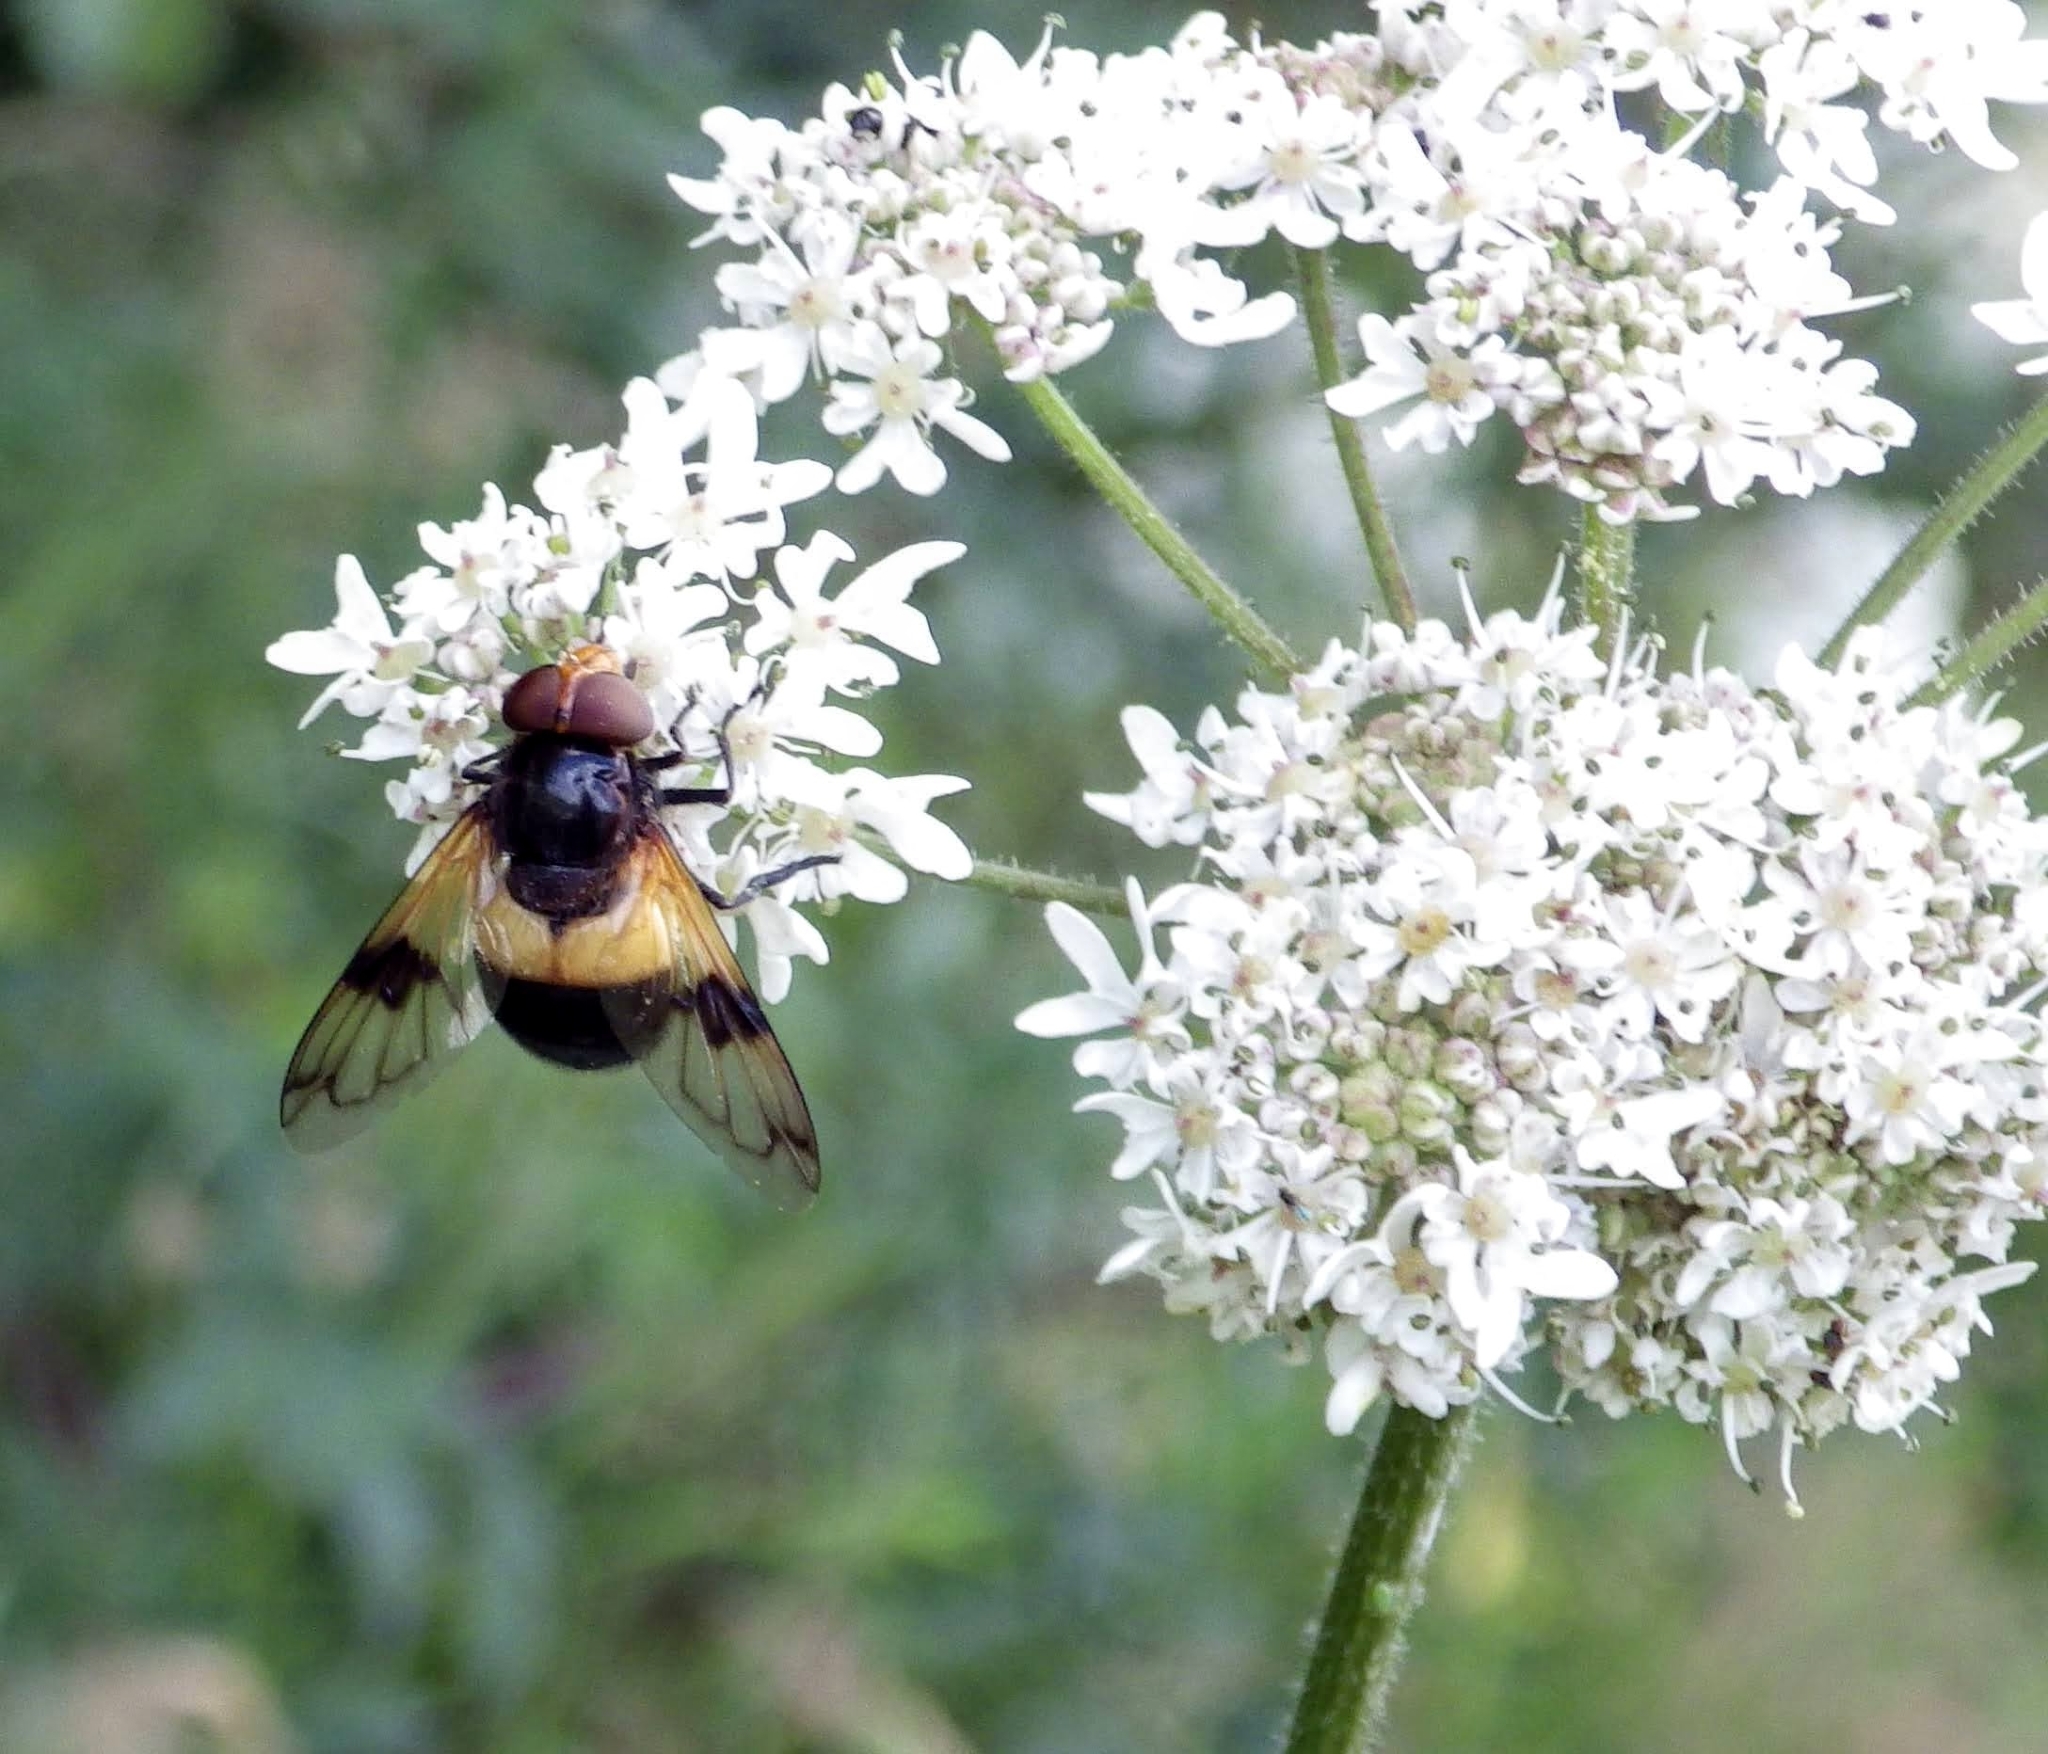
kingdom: Animalia
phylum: Arthropoda
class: Insecta
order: Diptera
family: Syrphidae
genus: Volucella
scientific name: Volucella pellucens
